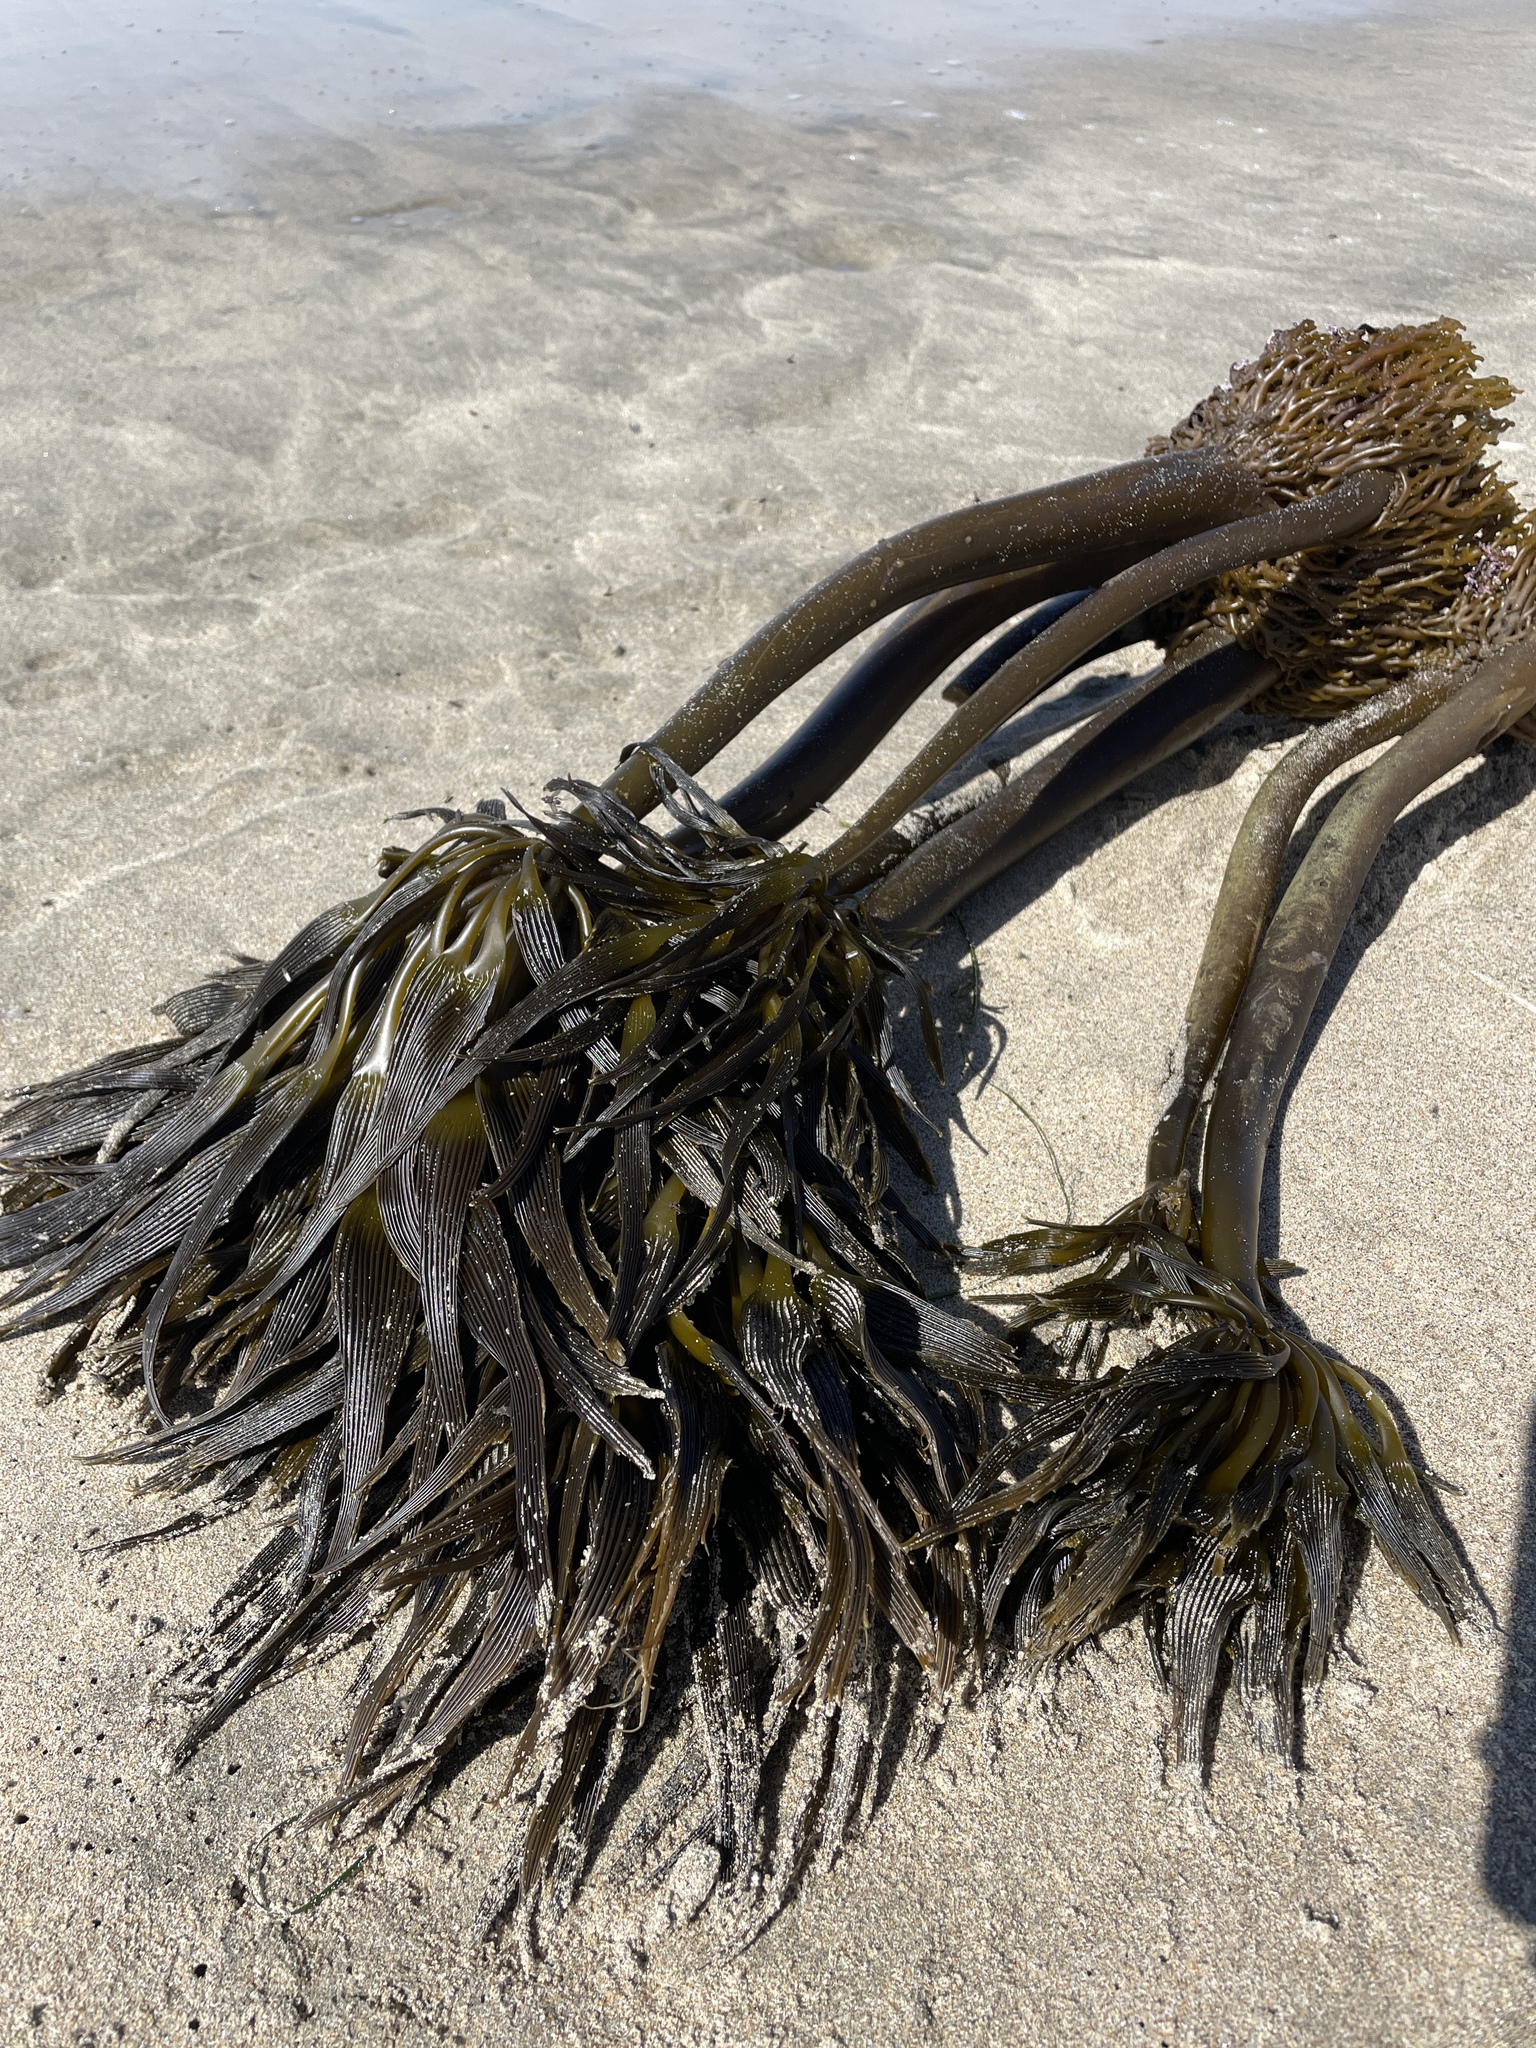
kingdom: Chromista
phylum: Ochrophyta
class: Phaeophyceae
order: Laminariales
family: Laminariaceae
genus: Postelsia
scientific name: Postelsia palmiformis
